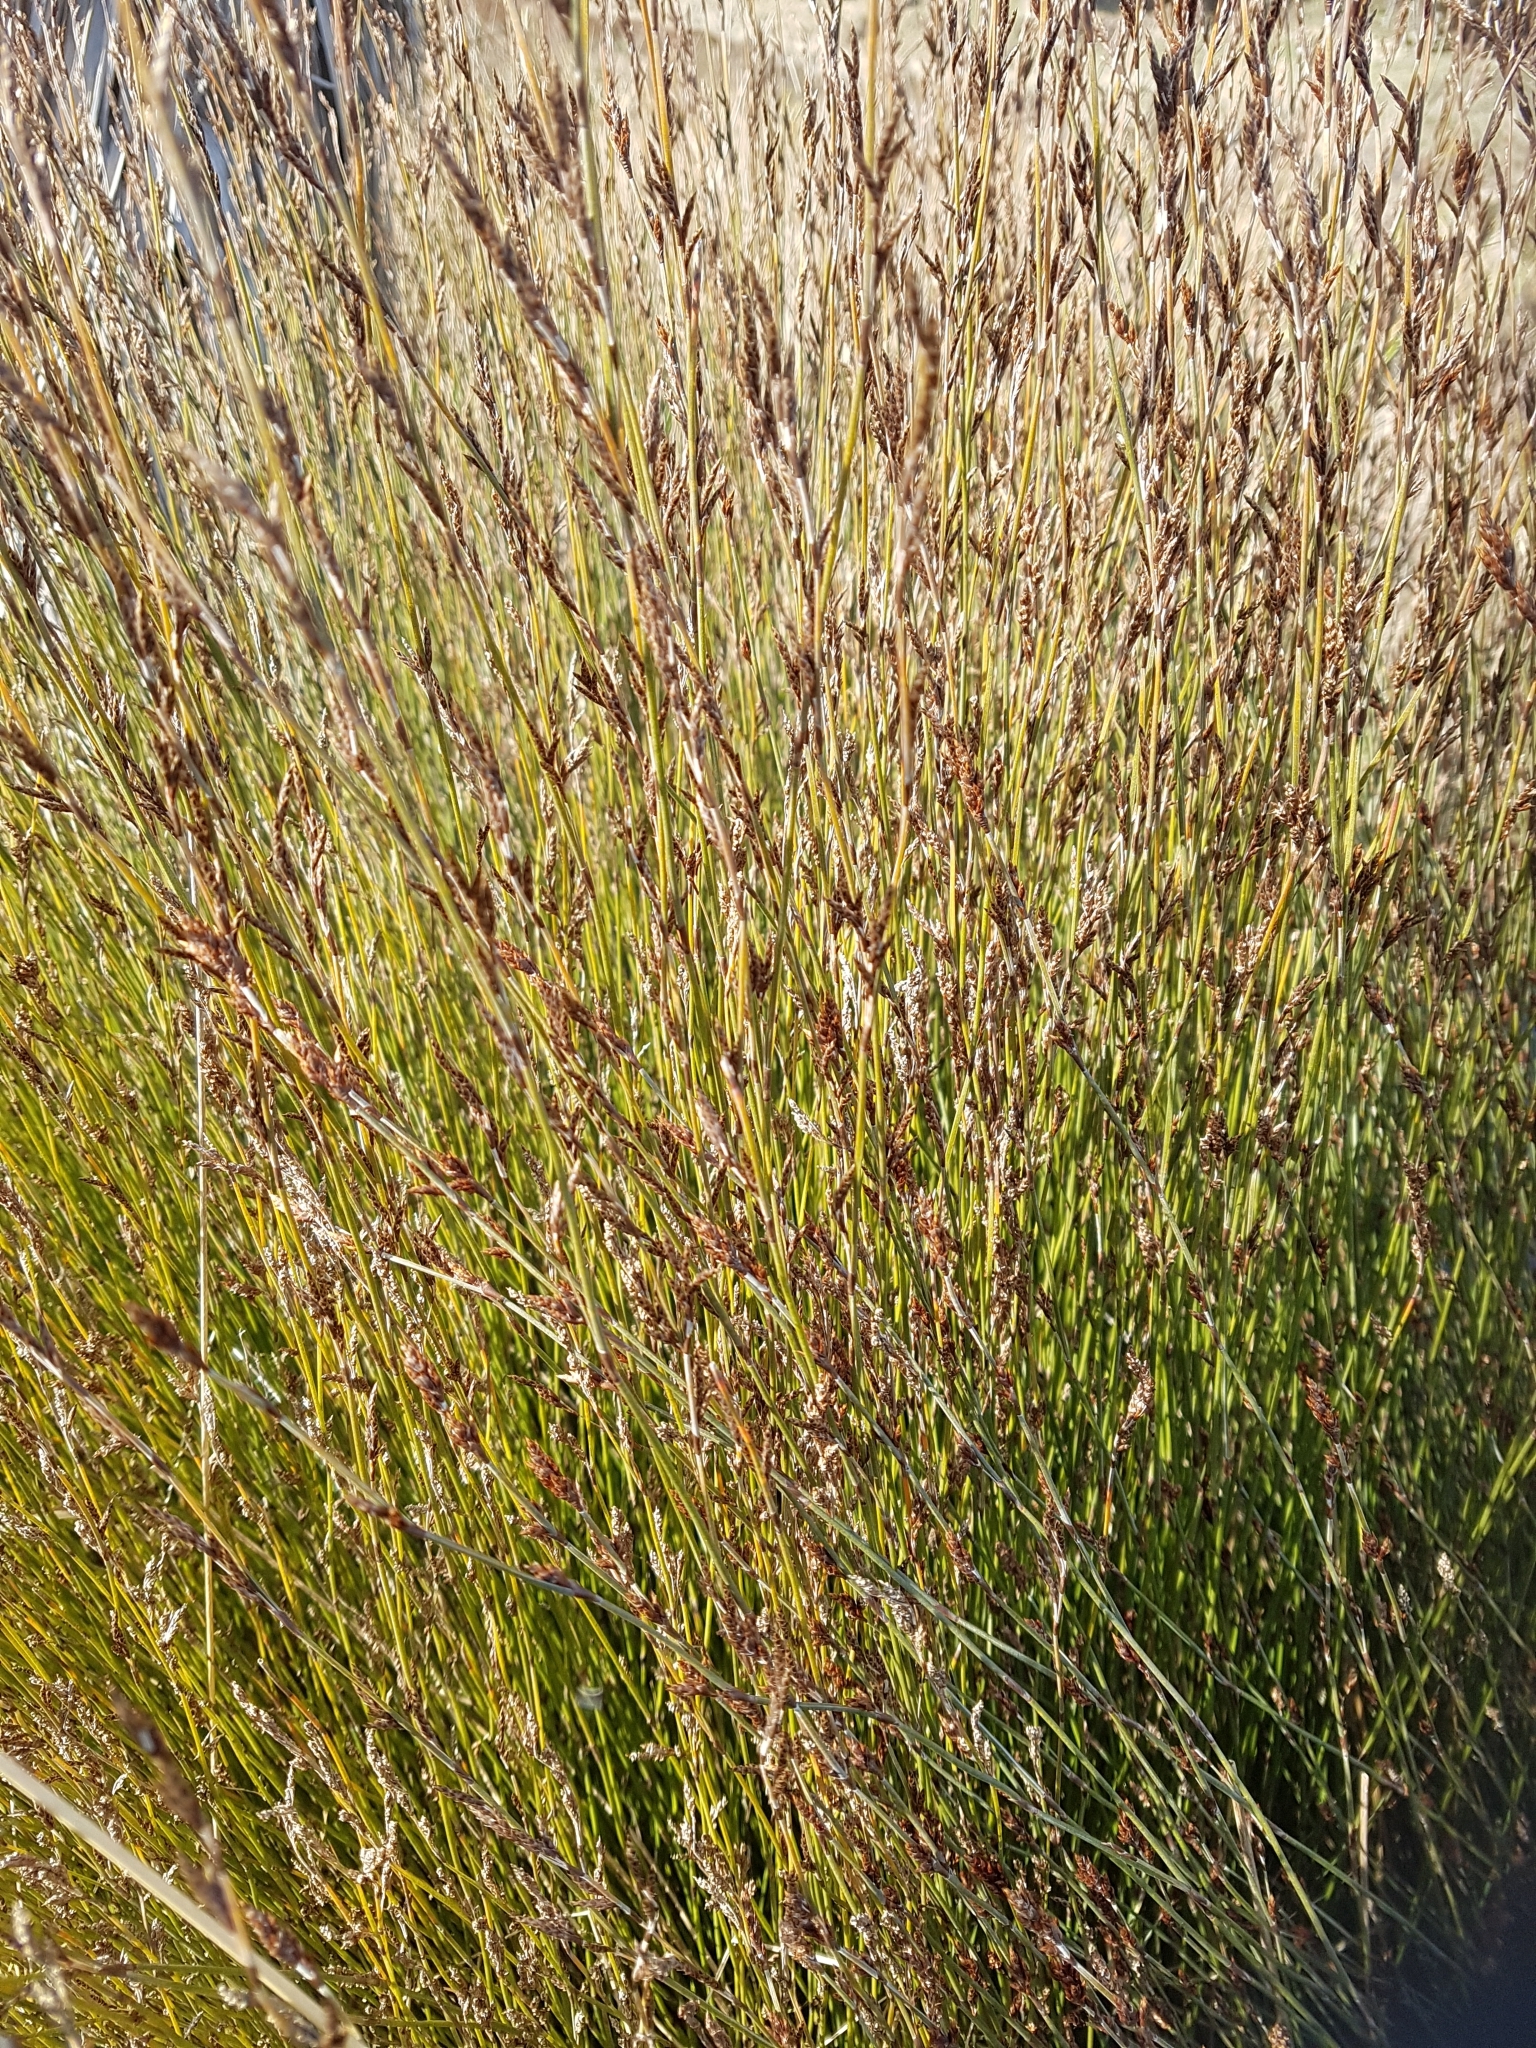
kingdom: Plantae
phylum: Tracheophyta
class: Liliopsida
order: Poales
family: Restionaceae
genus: Apodasmia
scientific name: Apodasmia similis
